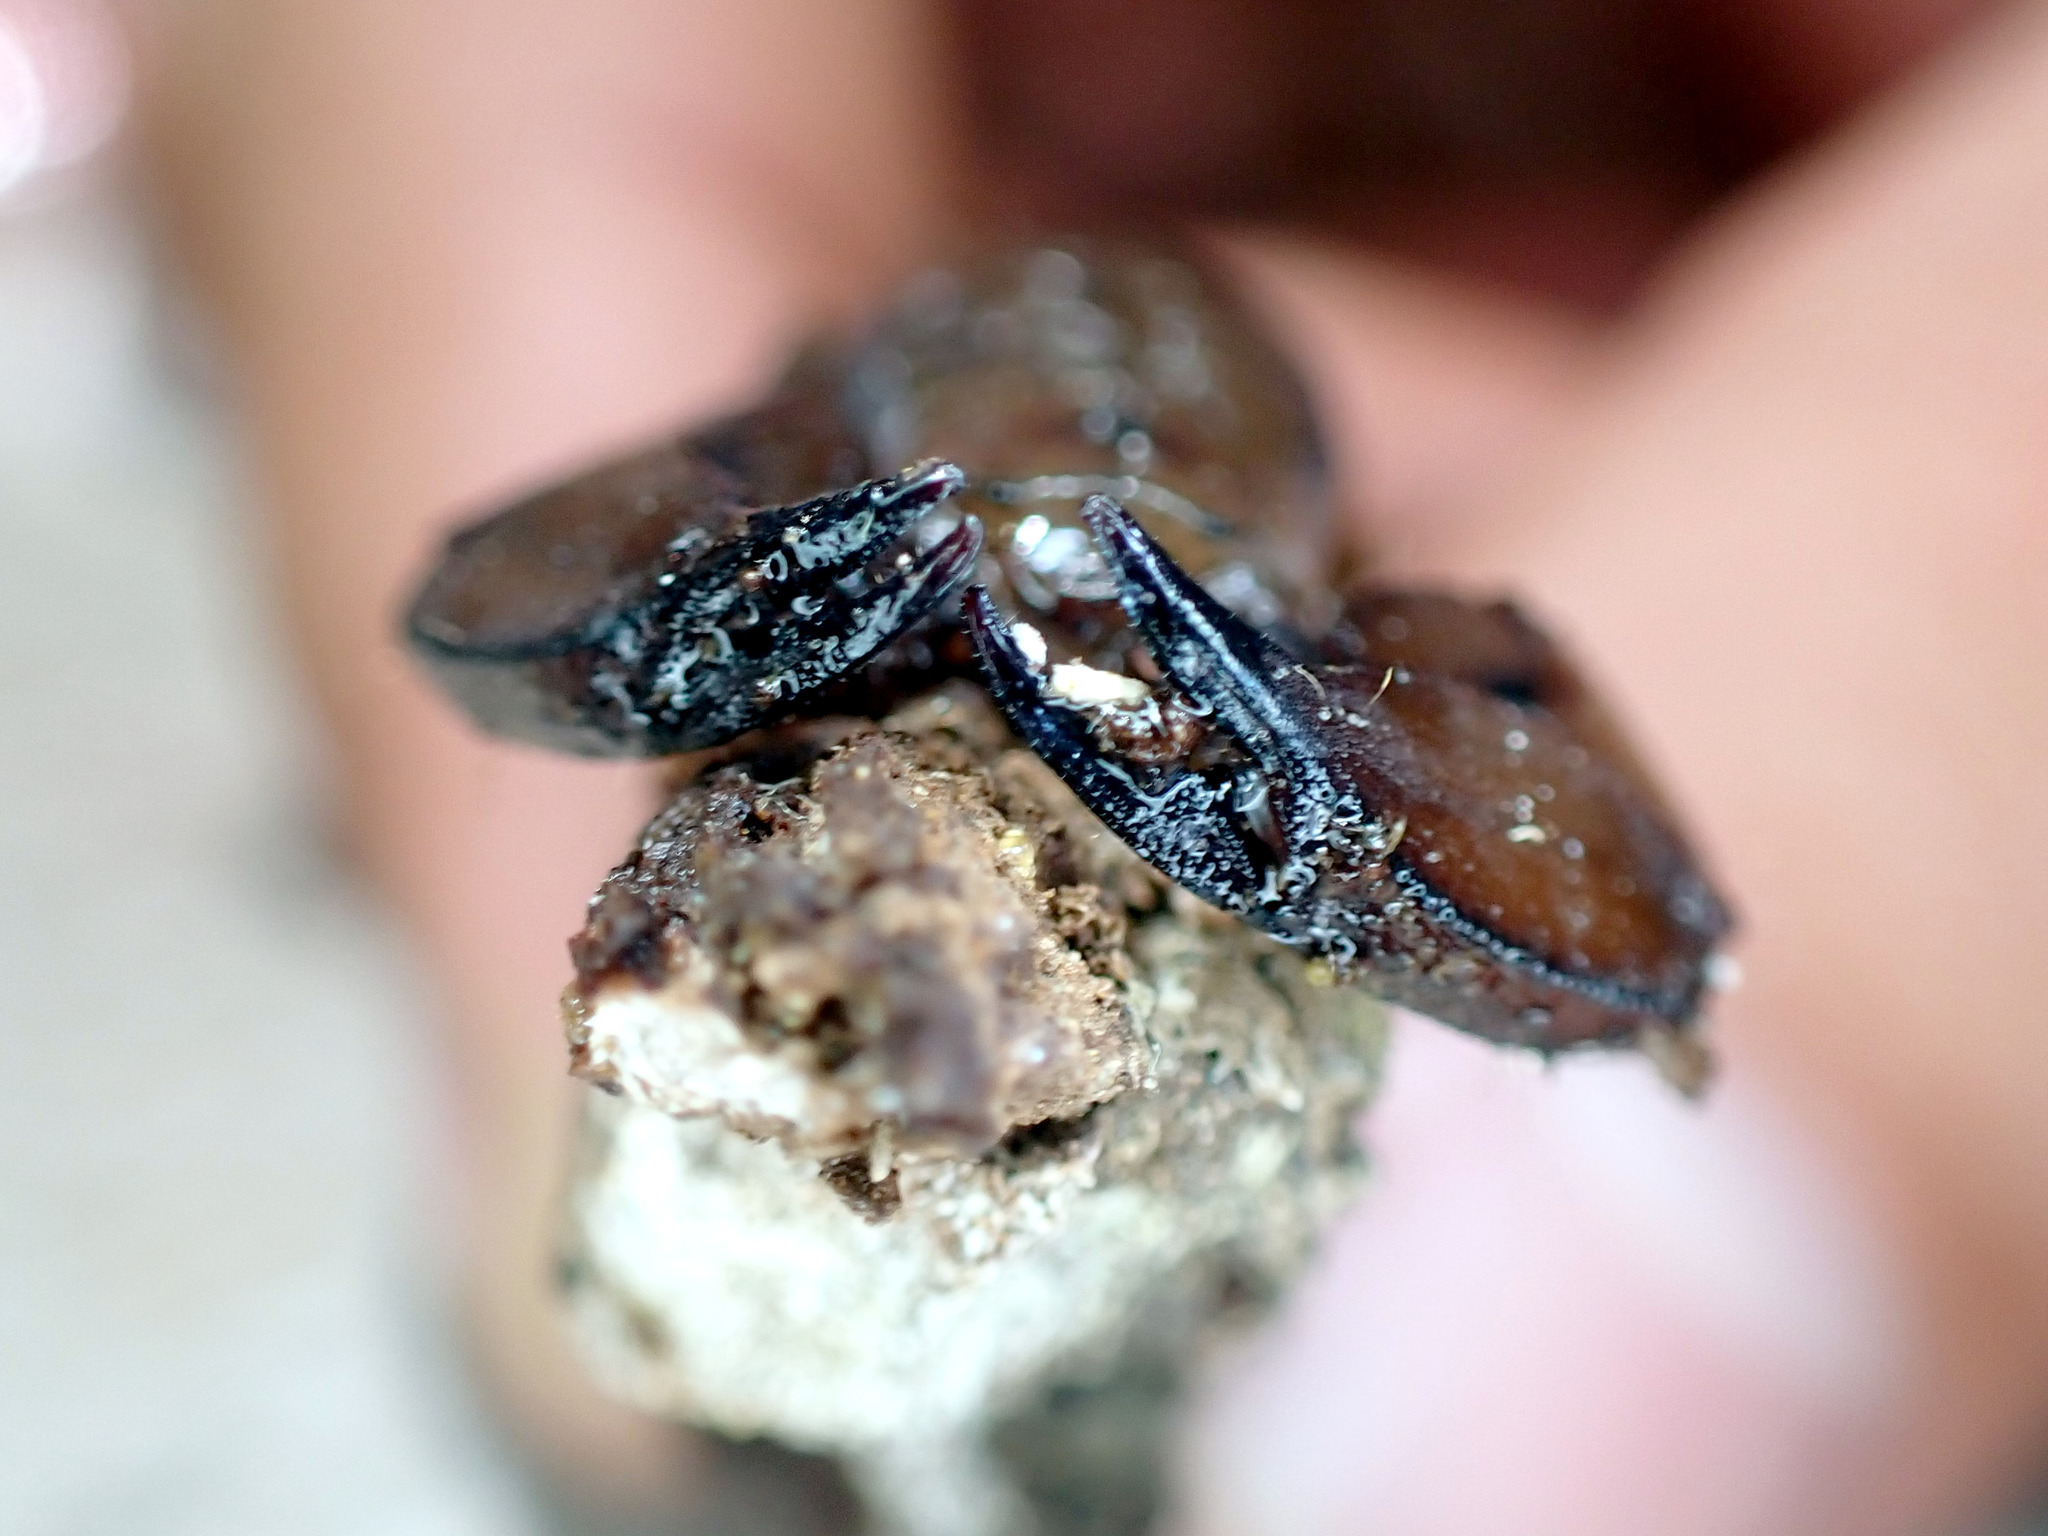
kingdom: Animalia
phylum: Arthropoda
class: Arachnida
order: Scorpiones
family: Hormuridae
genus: Liocheles
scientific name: Liocheles australasiae
